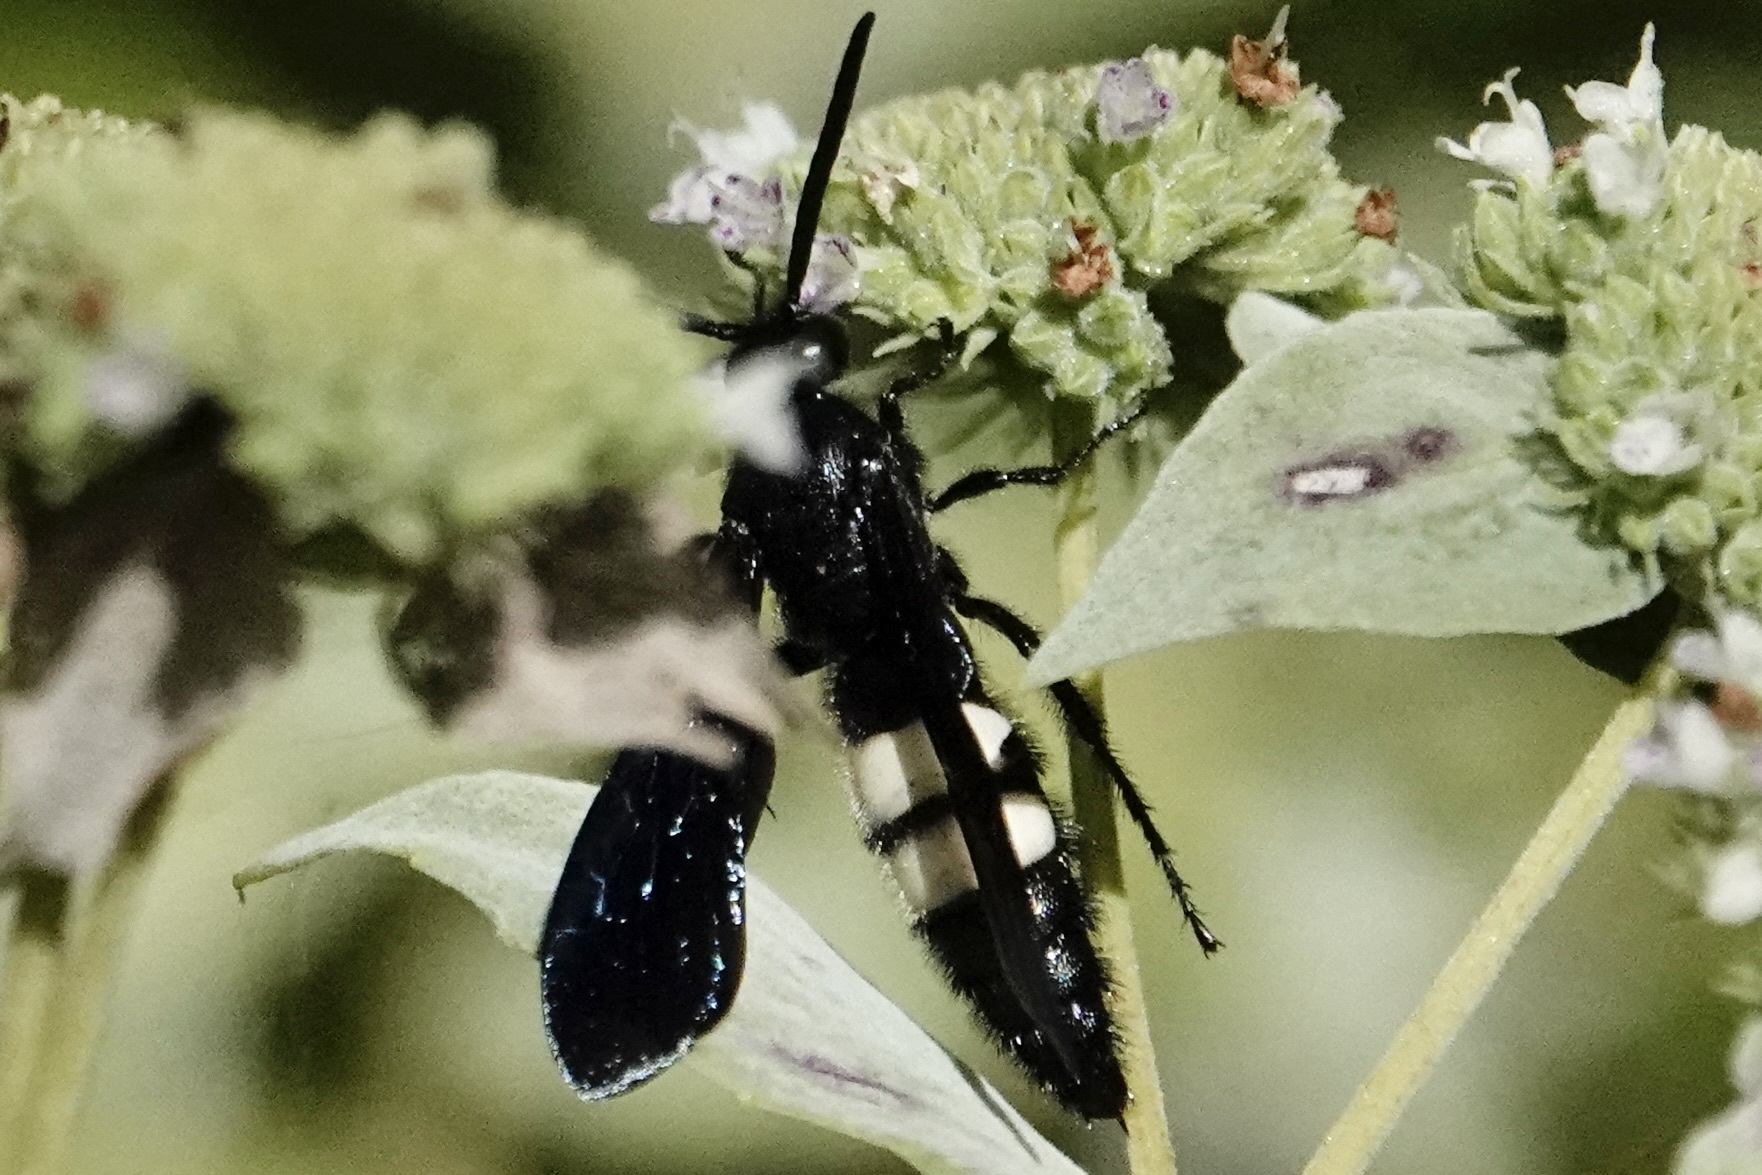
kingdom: Animalia
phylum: Arthropoda
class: Insecta
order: Hymenoptera
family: Scoliidae
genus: Scolia
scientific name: Scolia bicincta
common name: Double-banded scoliid wasp
